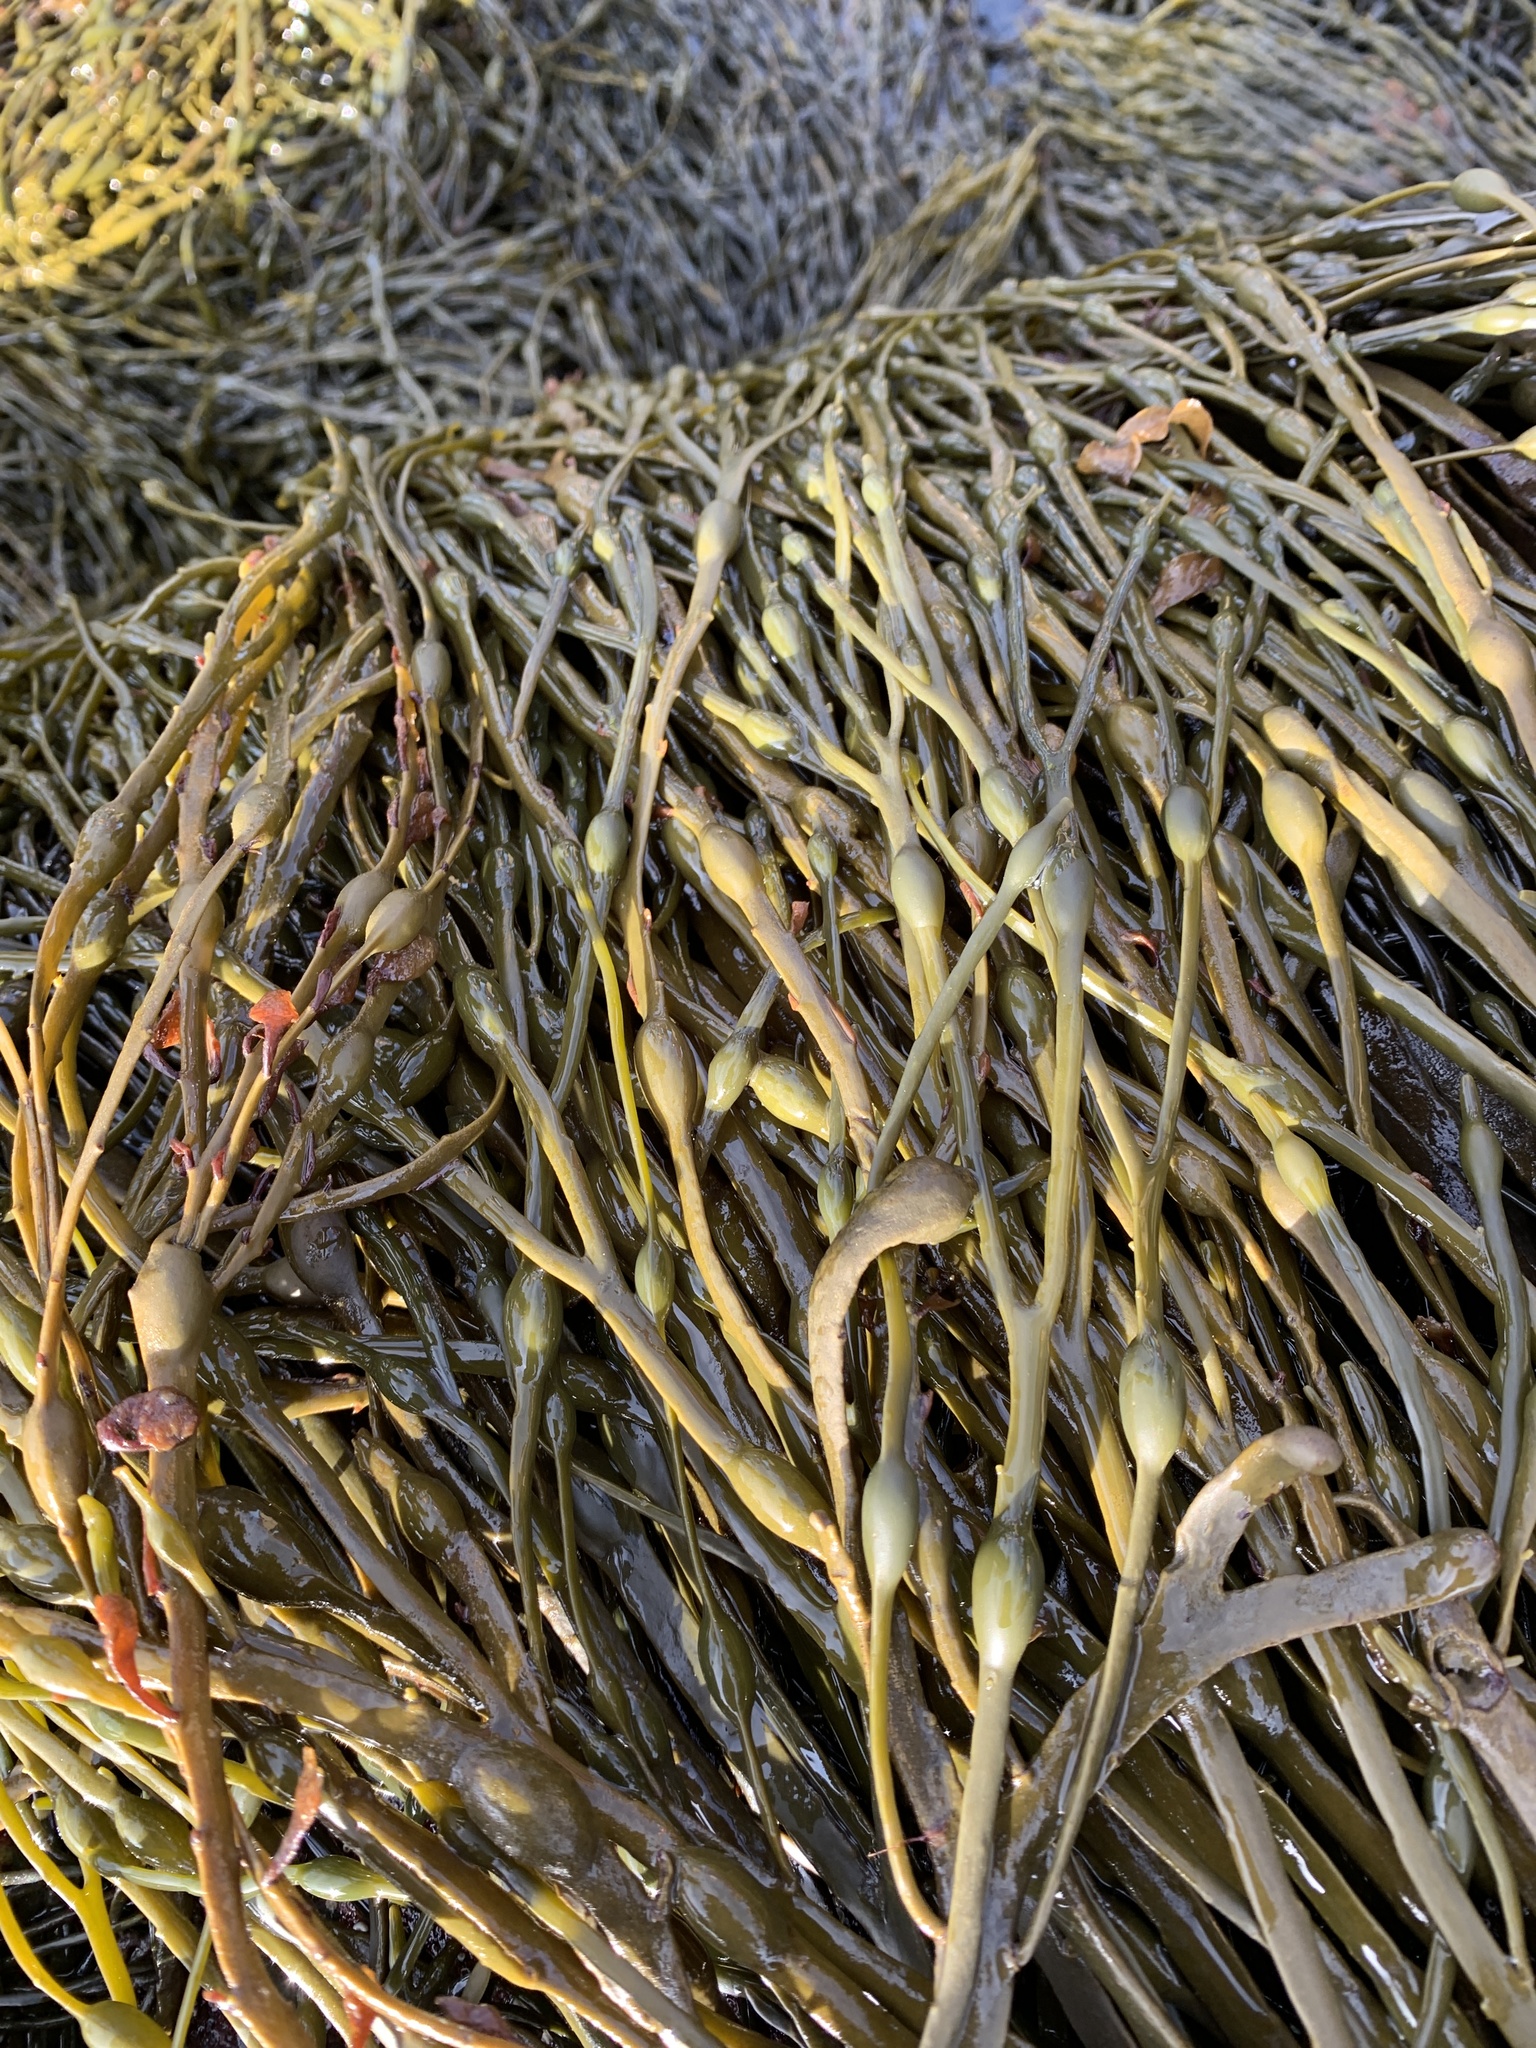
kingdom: Chromista
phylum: Ochrophyta
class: Phaeophyceae
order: Fucales
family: Fucaceae
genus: Ascophyllum
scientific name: Ascophyllum nodosum
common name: Knotted wrack
